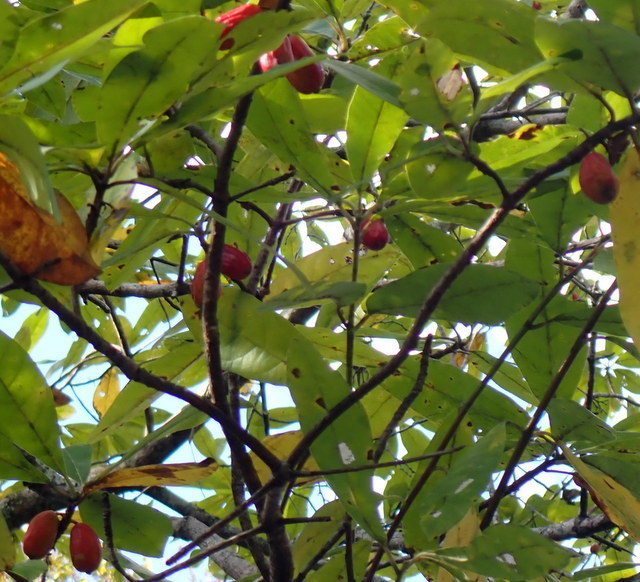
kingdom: Plantae
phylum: Tracheophyta
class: Magnoliopsida
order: Cornales
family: Nyssaceae
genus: Nyssa
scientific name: Nyssa ogeche
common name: Ogeechee tupelo
